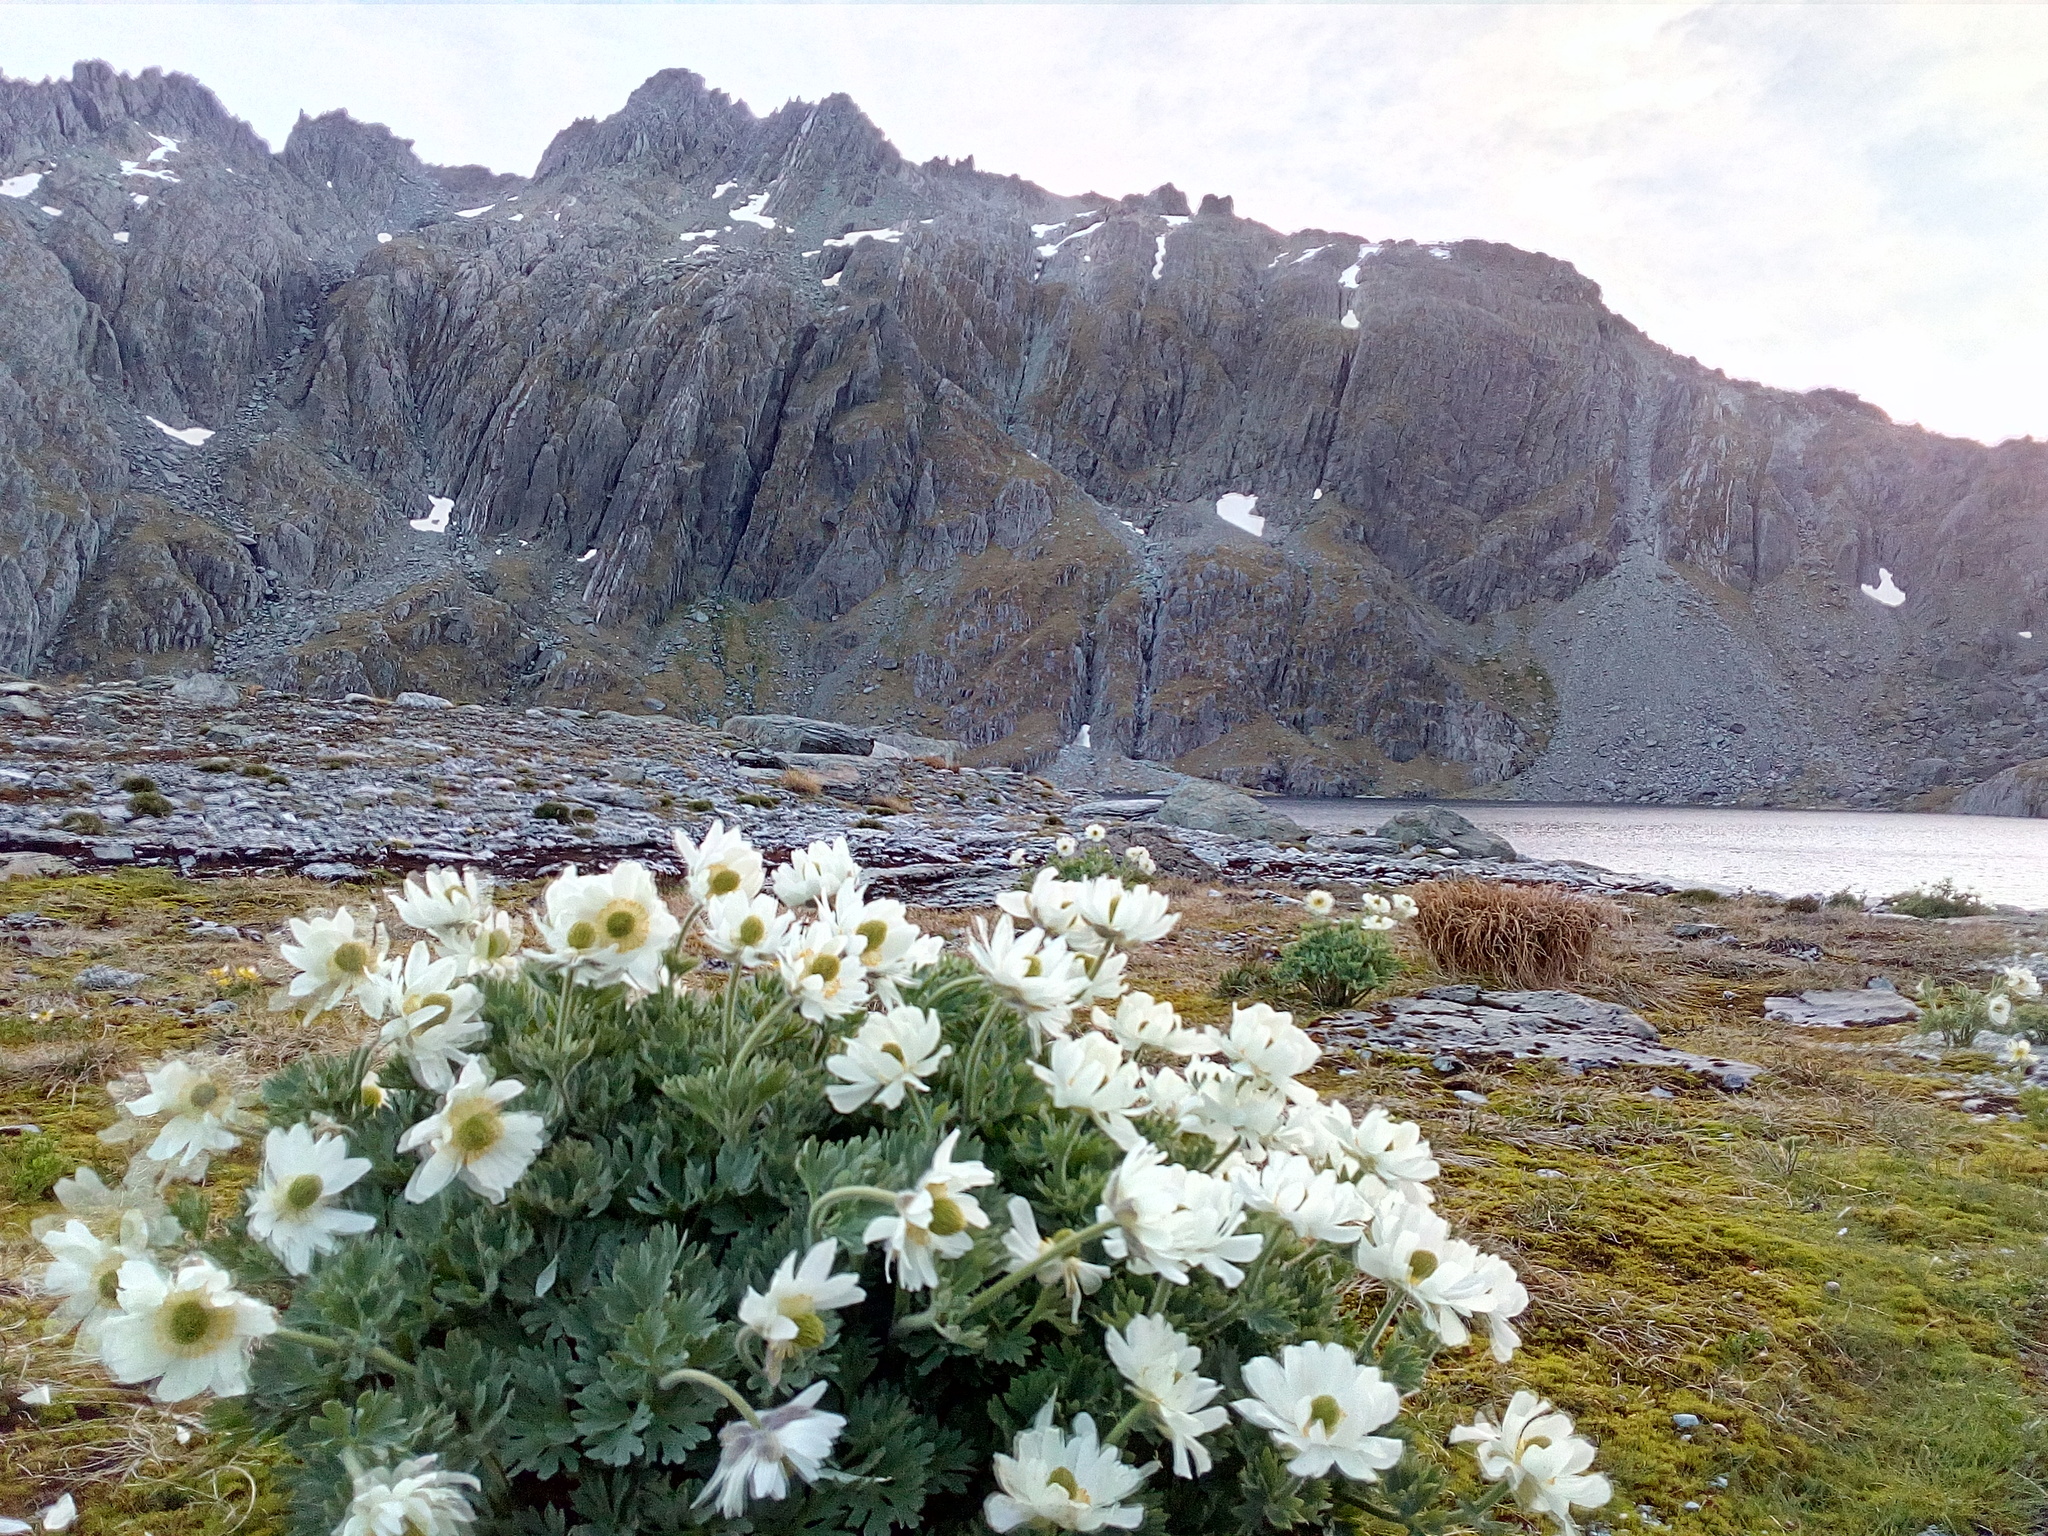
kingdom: Plantae
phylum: Tracheophyta
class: Magnoliopsida
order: Ranunculales
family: Ranunculaceae
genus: Ranunculus
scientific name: Ranunculus buchananii
